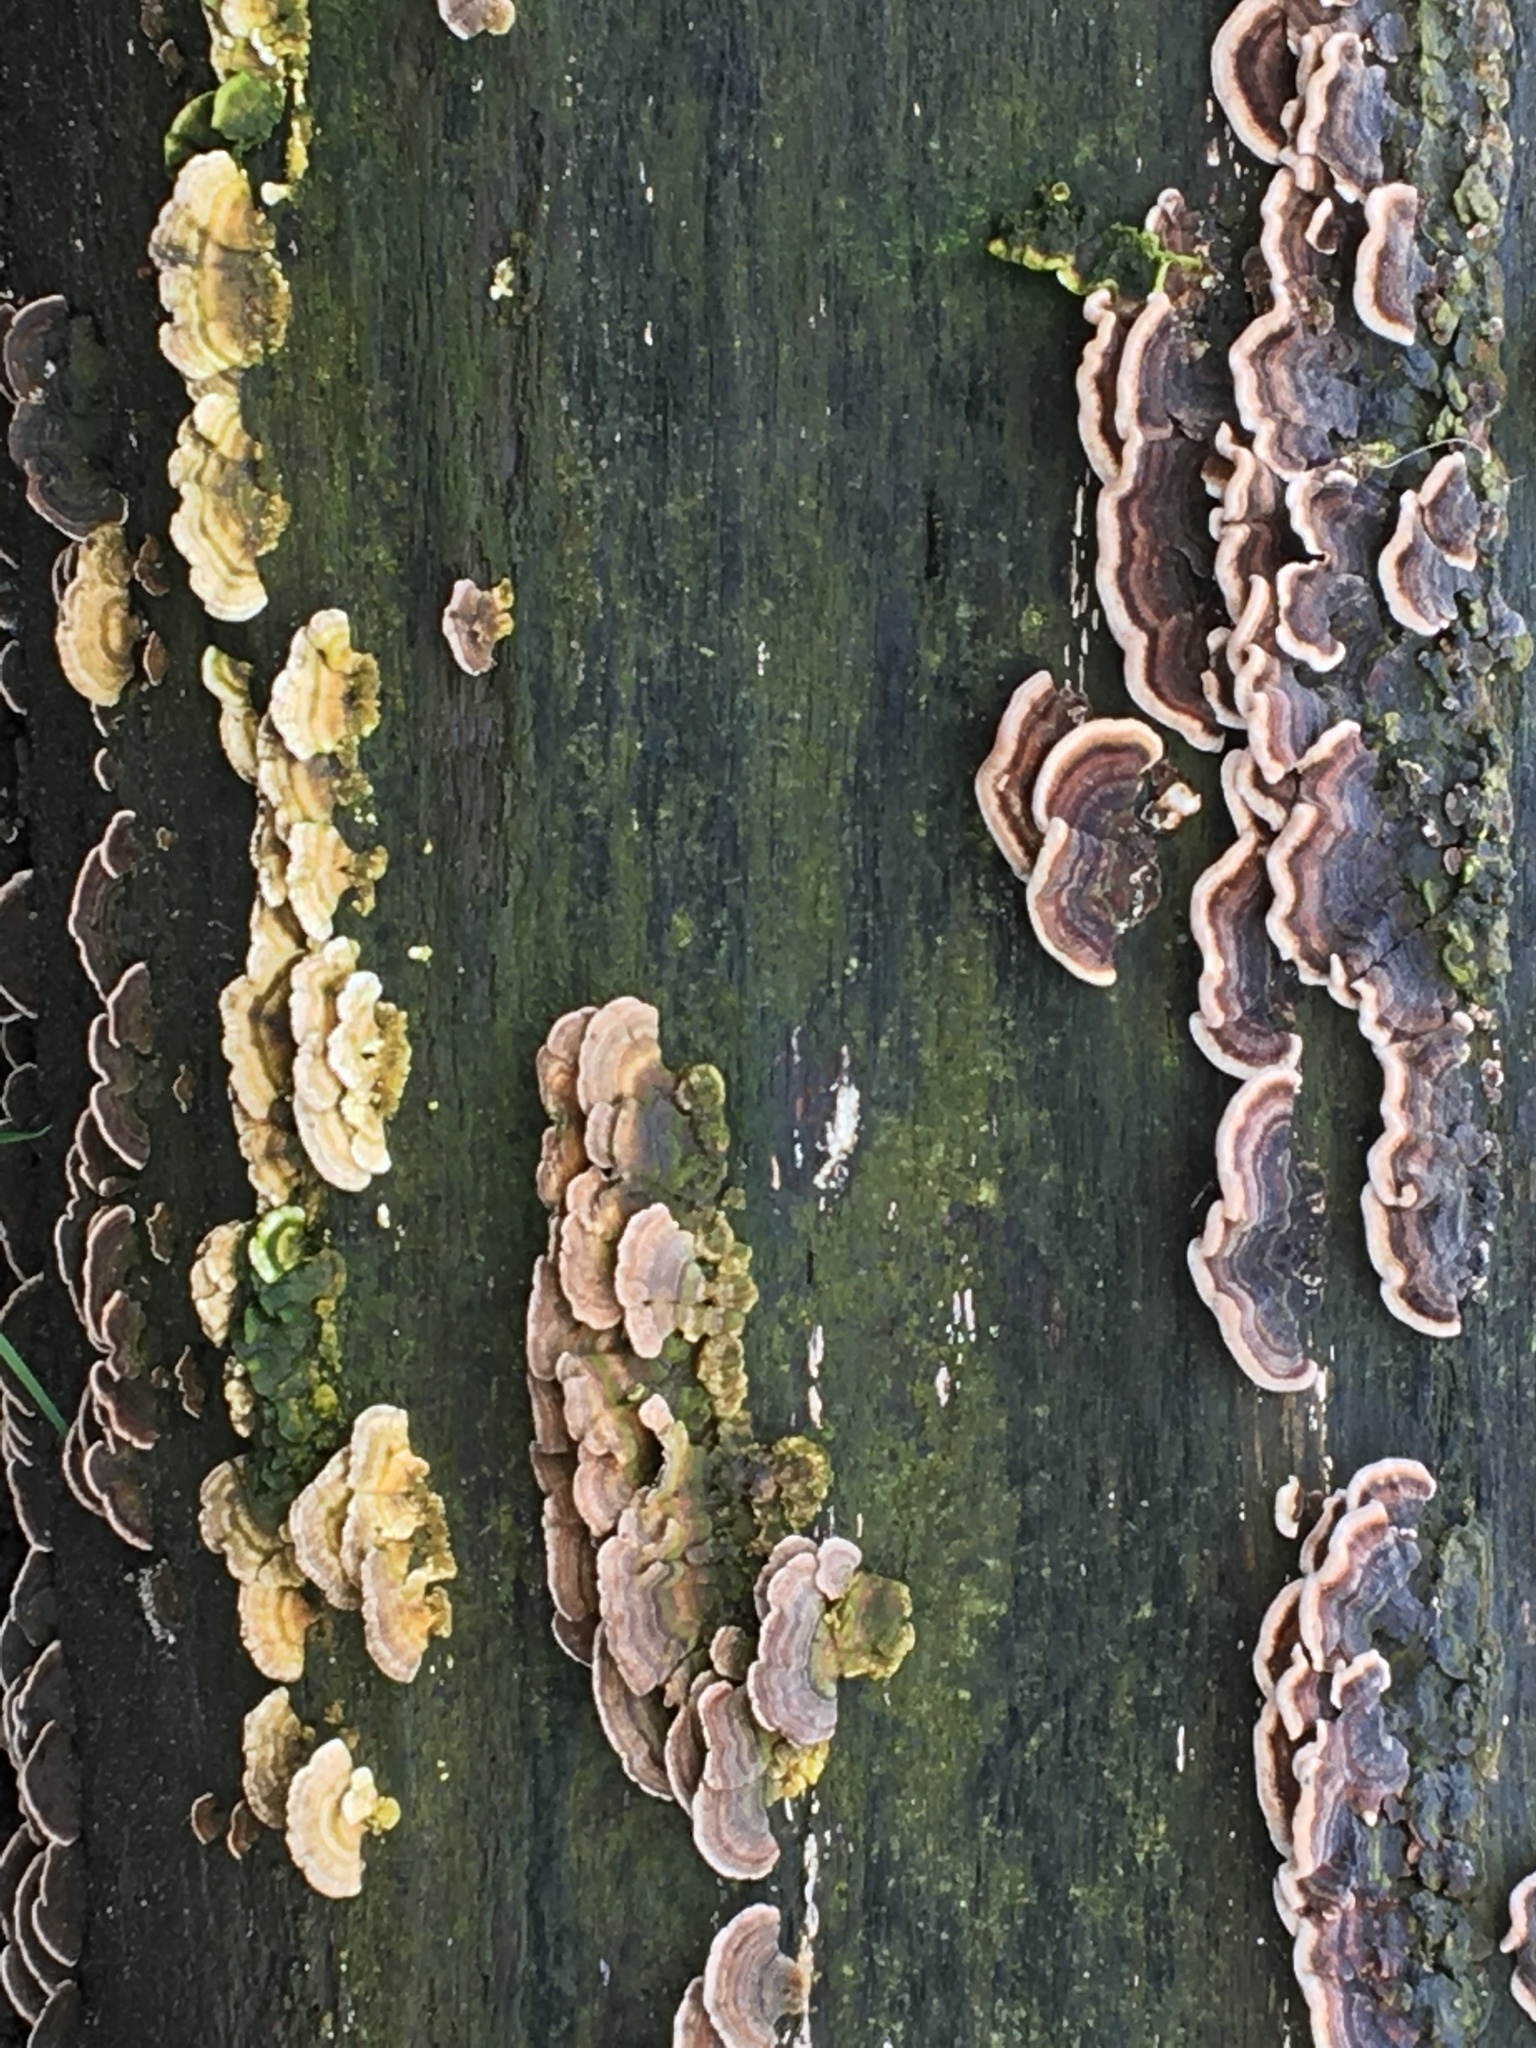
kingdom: Fungi
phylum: Basidiomycota
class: Agaricomycetes
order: Polyporales
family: Polyporaceae
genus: Trametes
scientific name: Trametes versicolor
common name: Turkeytail
